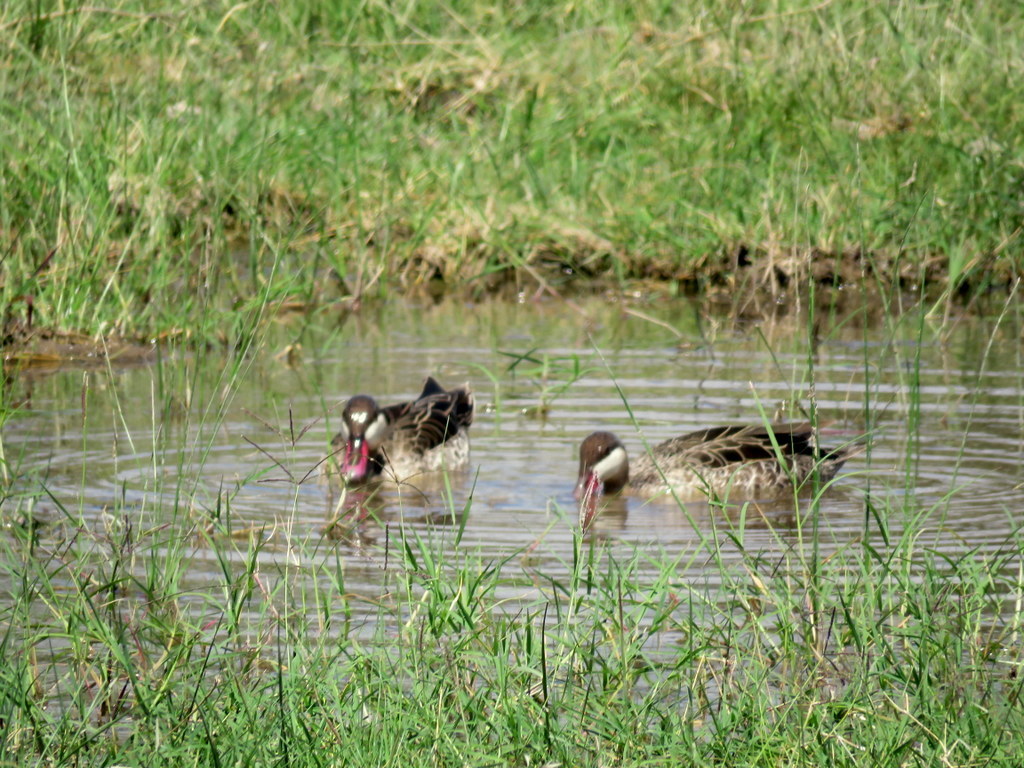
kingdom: Animalia
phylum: Chordata
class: Aves
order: Anseriformes
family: Anatidae
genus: Anas
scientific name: Anas erythrorhyncha
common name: Red-billed teal
